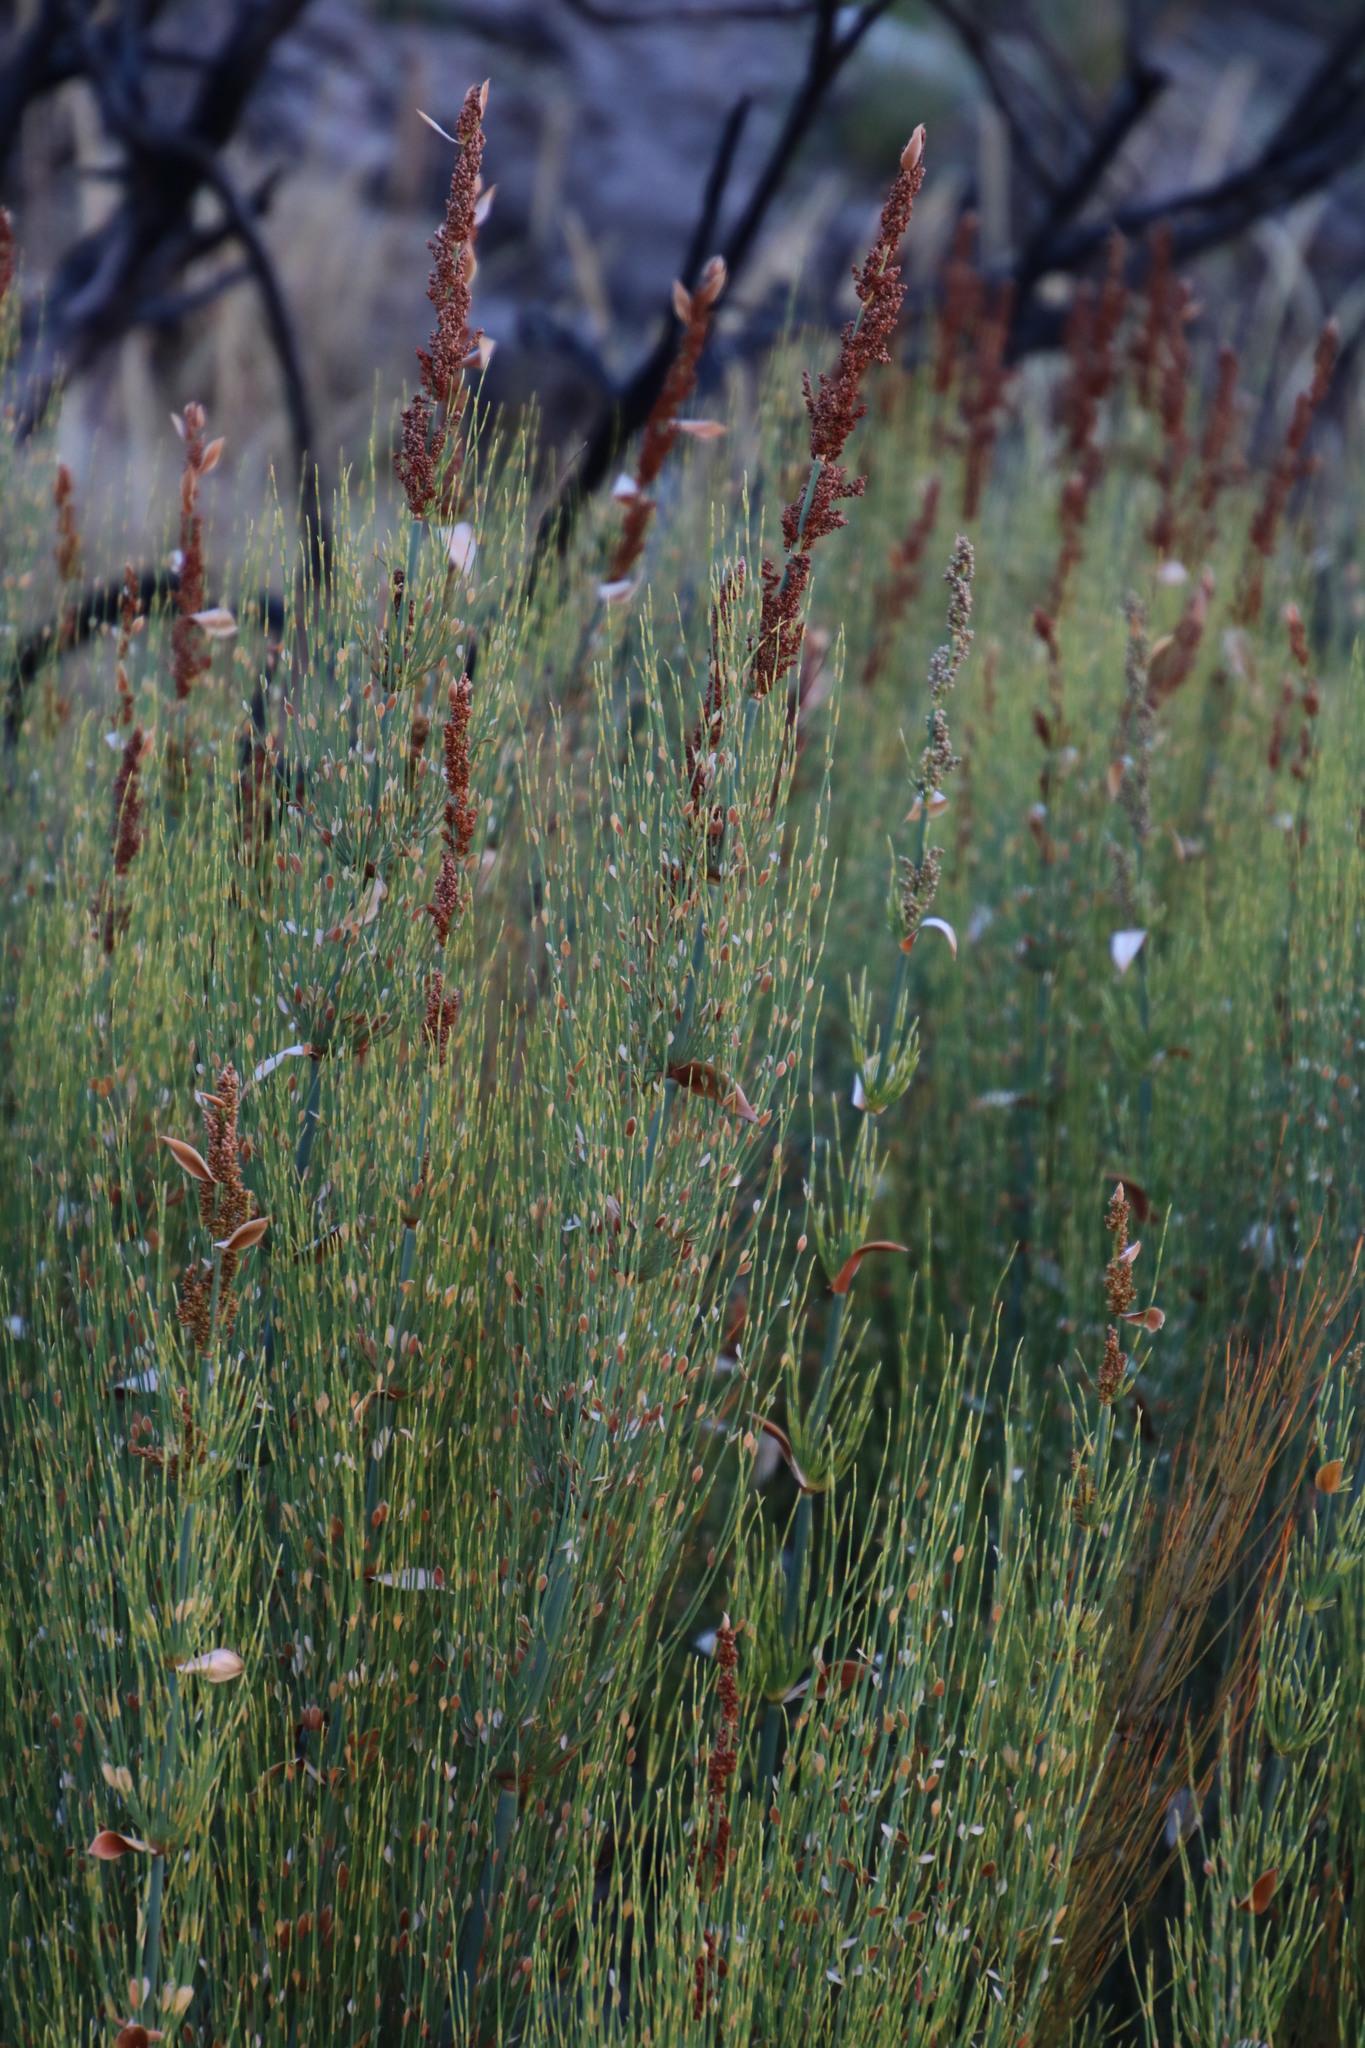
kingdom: Plantae
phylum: Tracheophyta
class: Liliopsida
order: Poales
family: Restionaceae
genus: Elegia
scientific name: Elegia capensis
